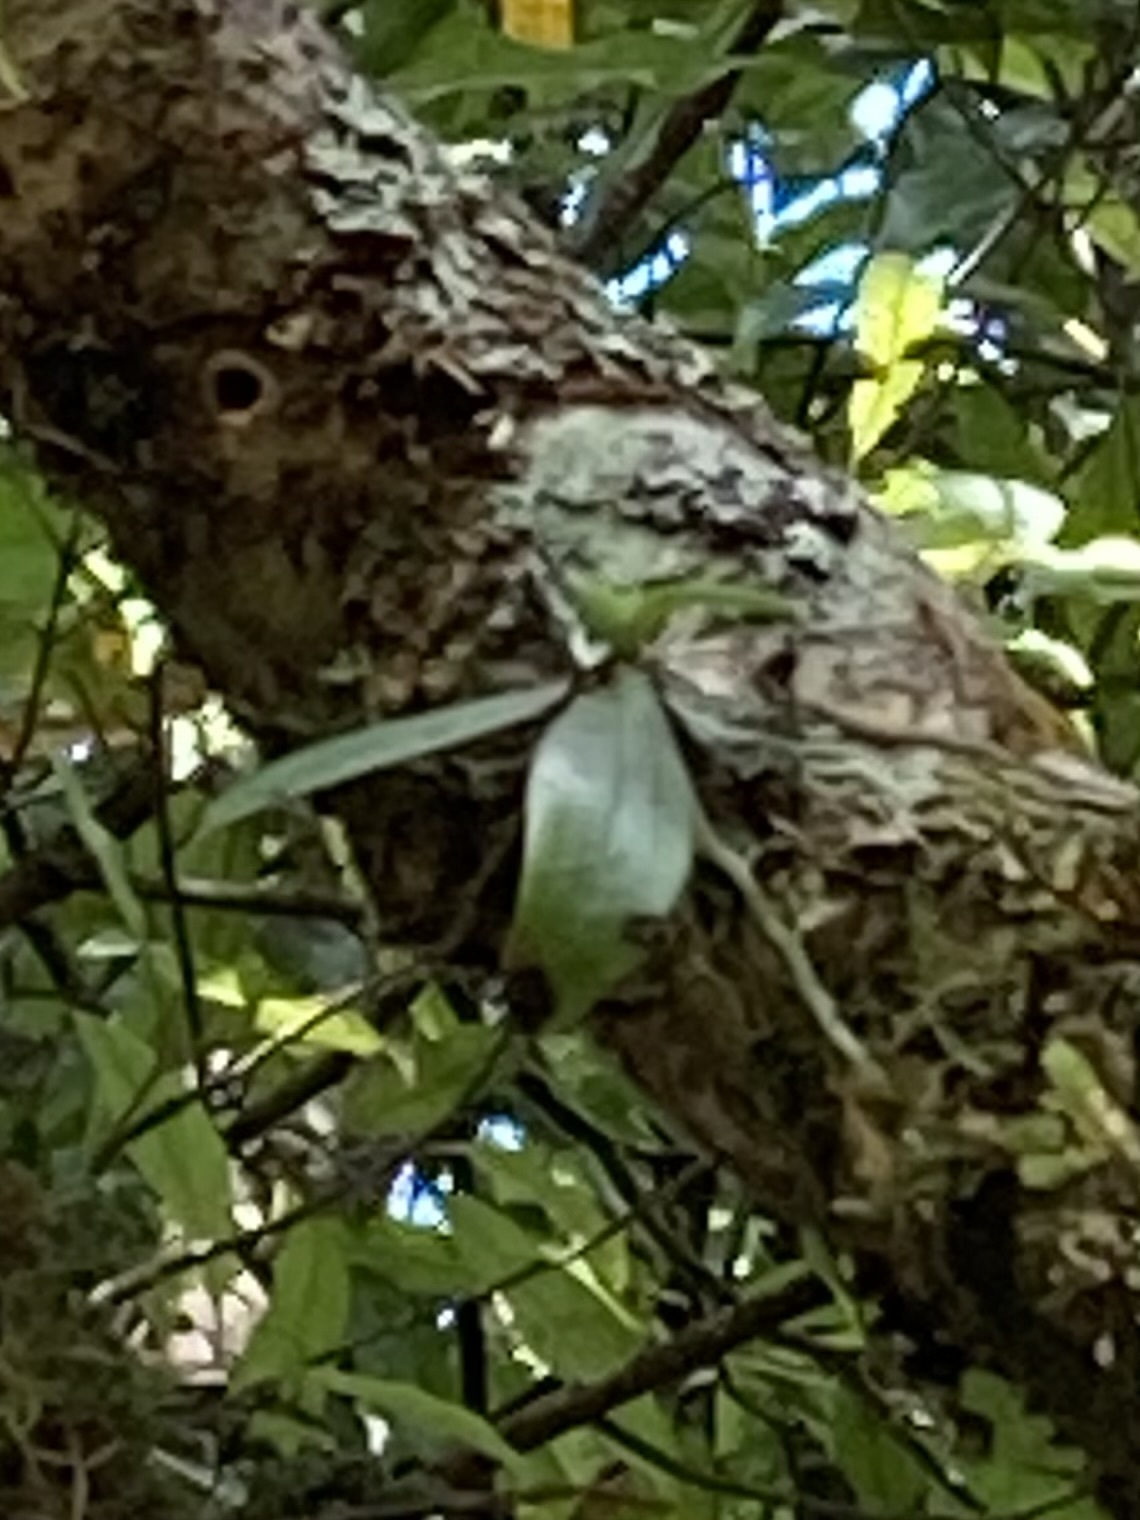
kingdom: Plantae
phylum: Tracheophyta
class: Liliopsida
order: Asparagales
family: Orchidaceae
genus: Drymoanthus
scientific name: Drymoanthus adversus
